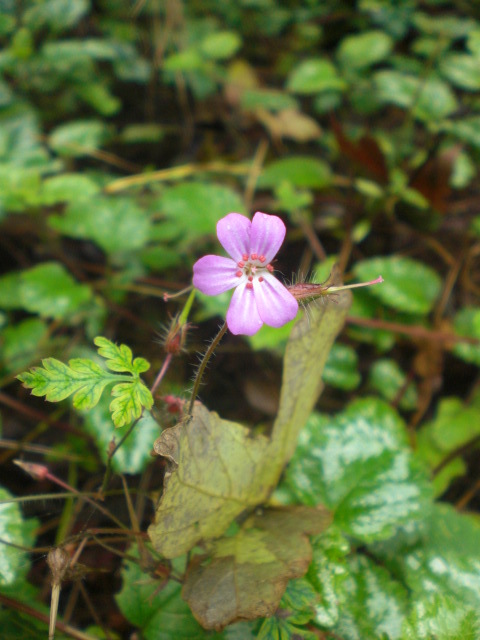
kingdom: Plantae
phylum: Tracheophyta
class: Magnoliopsida
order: Geraniales
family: Geraniaceae
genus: Geranium
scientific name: Geranium robertianum
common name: Herb-robert
